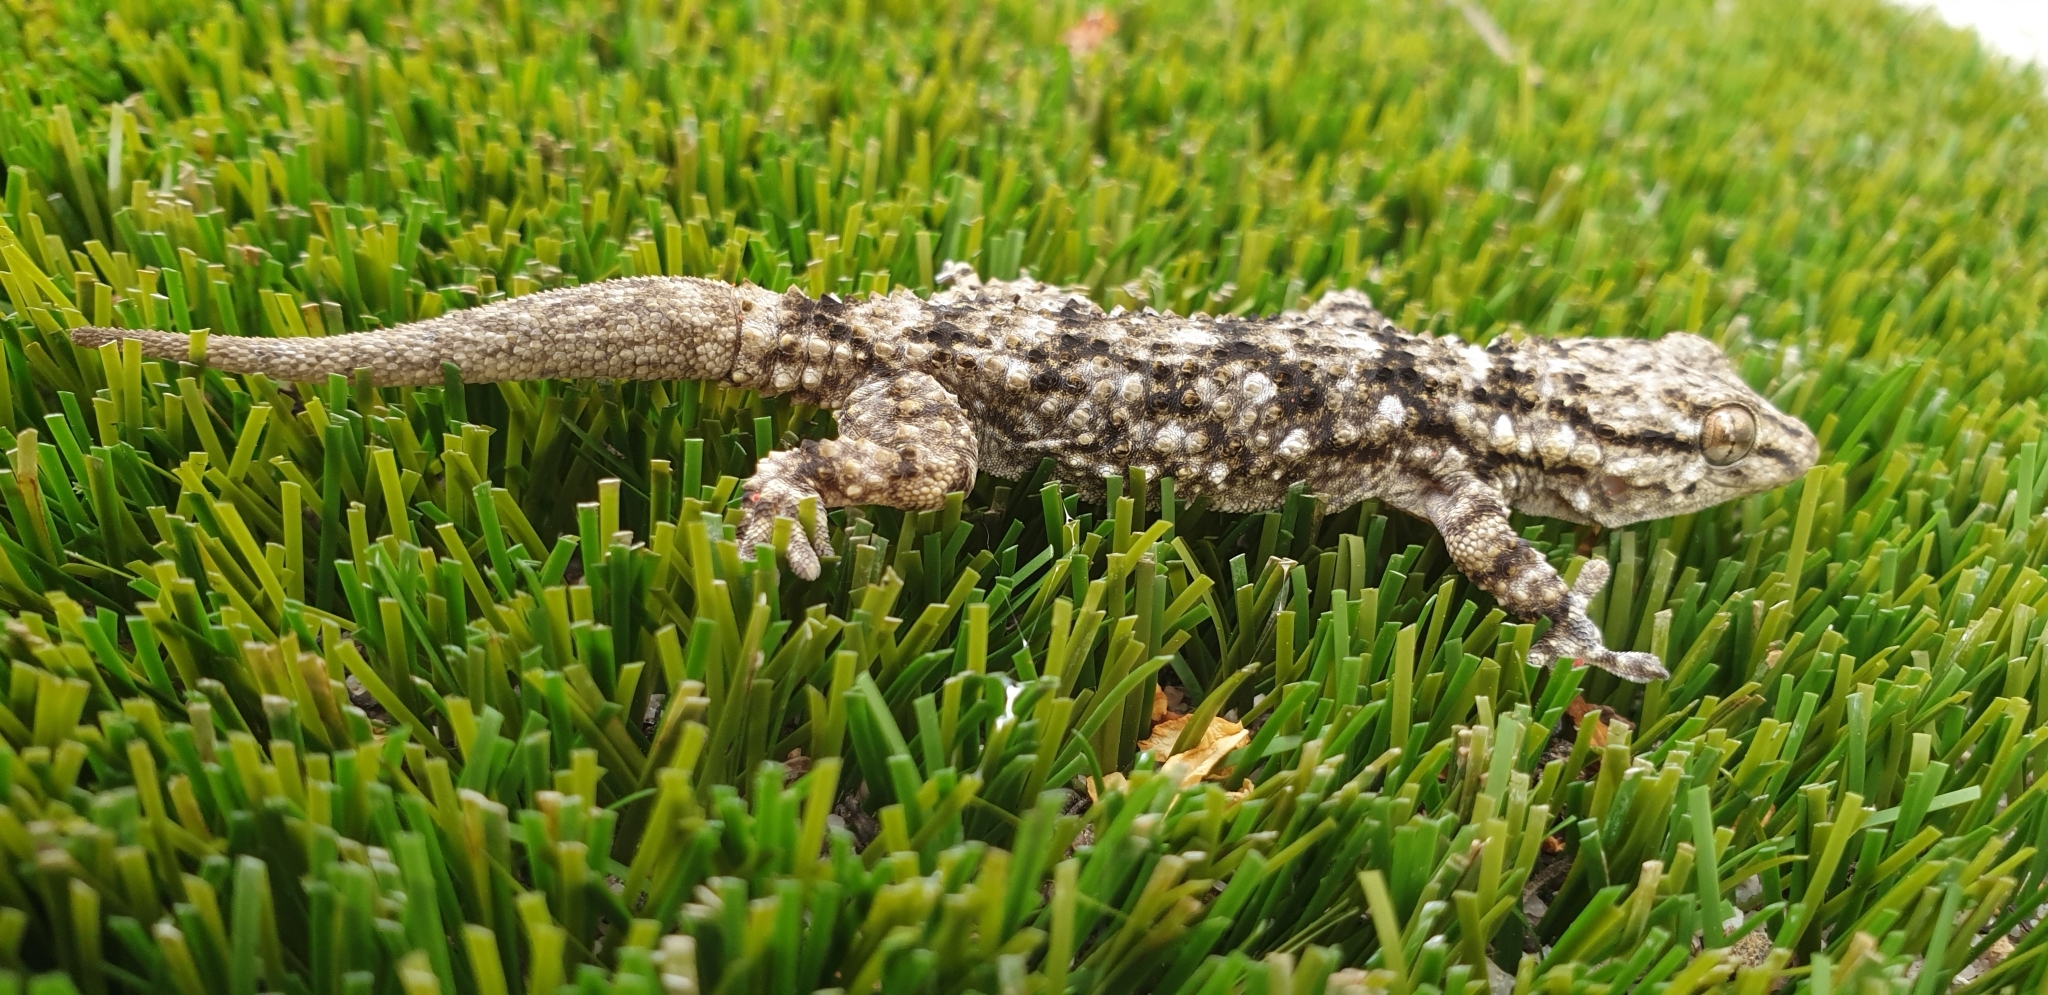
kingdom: Animalia
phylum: Chordata
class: Squamata
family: Phyllodactylidae
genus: Tarentola
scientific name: Tarentola mauritanica
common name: Moorish gecko
